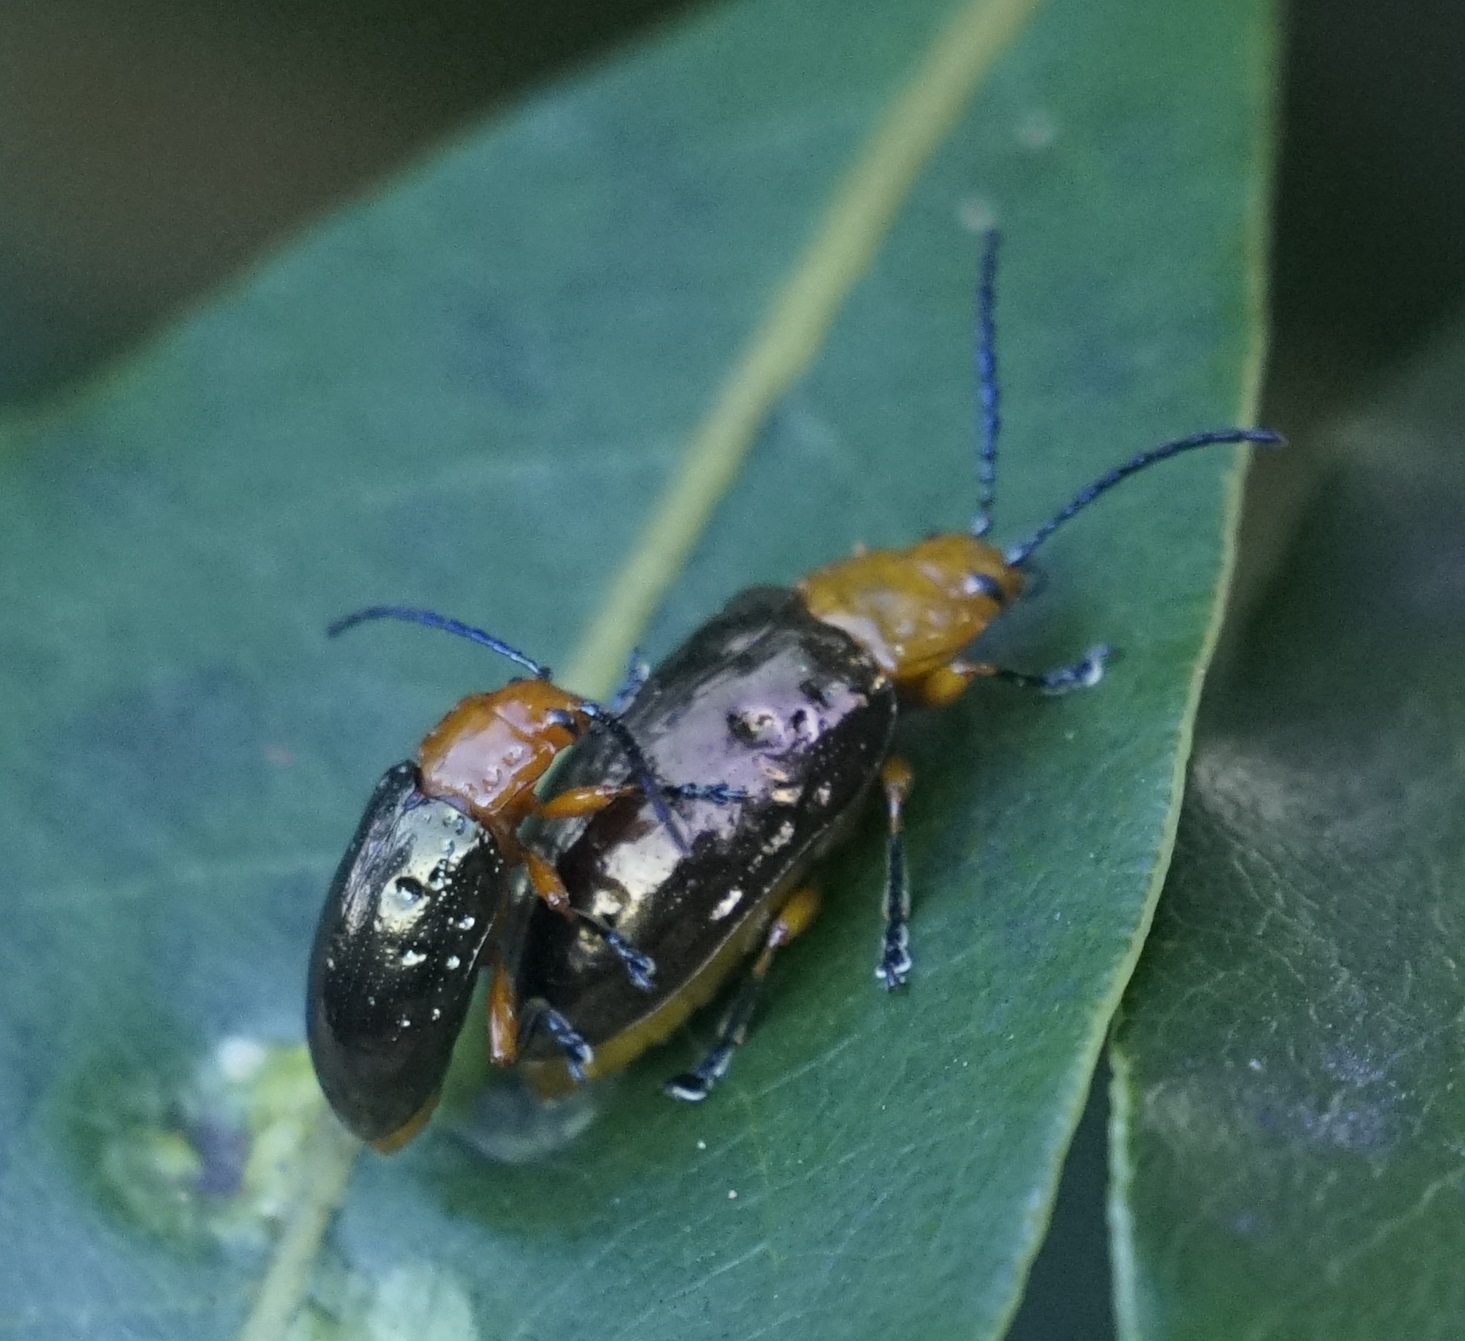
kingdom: Animalia
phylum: Arthropoda
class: Insecta
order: Coleoptera
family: Chrysomelidae
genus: Lamprolina
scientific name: Lamprolina
